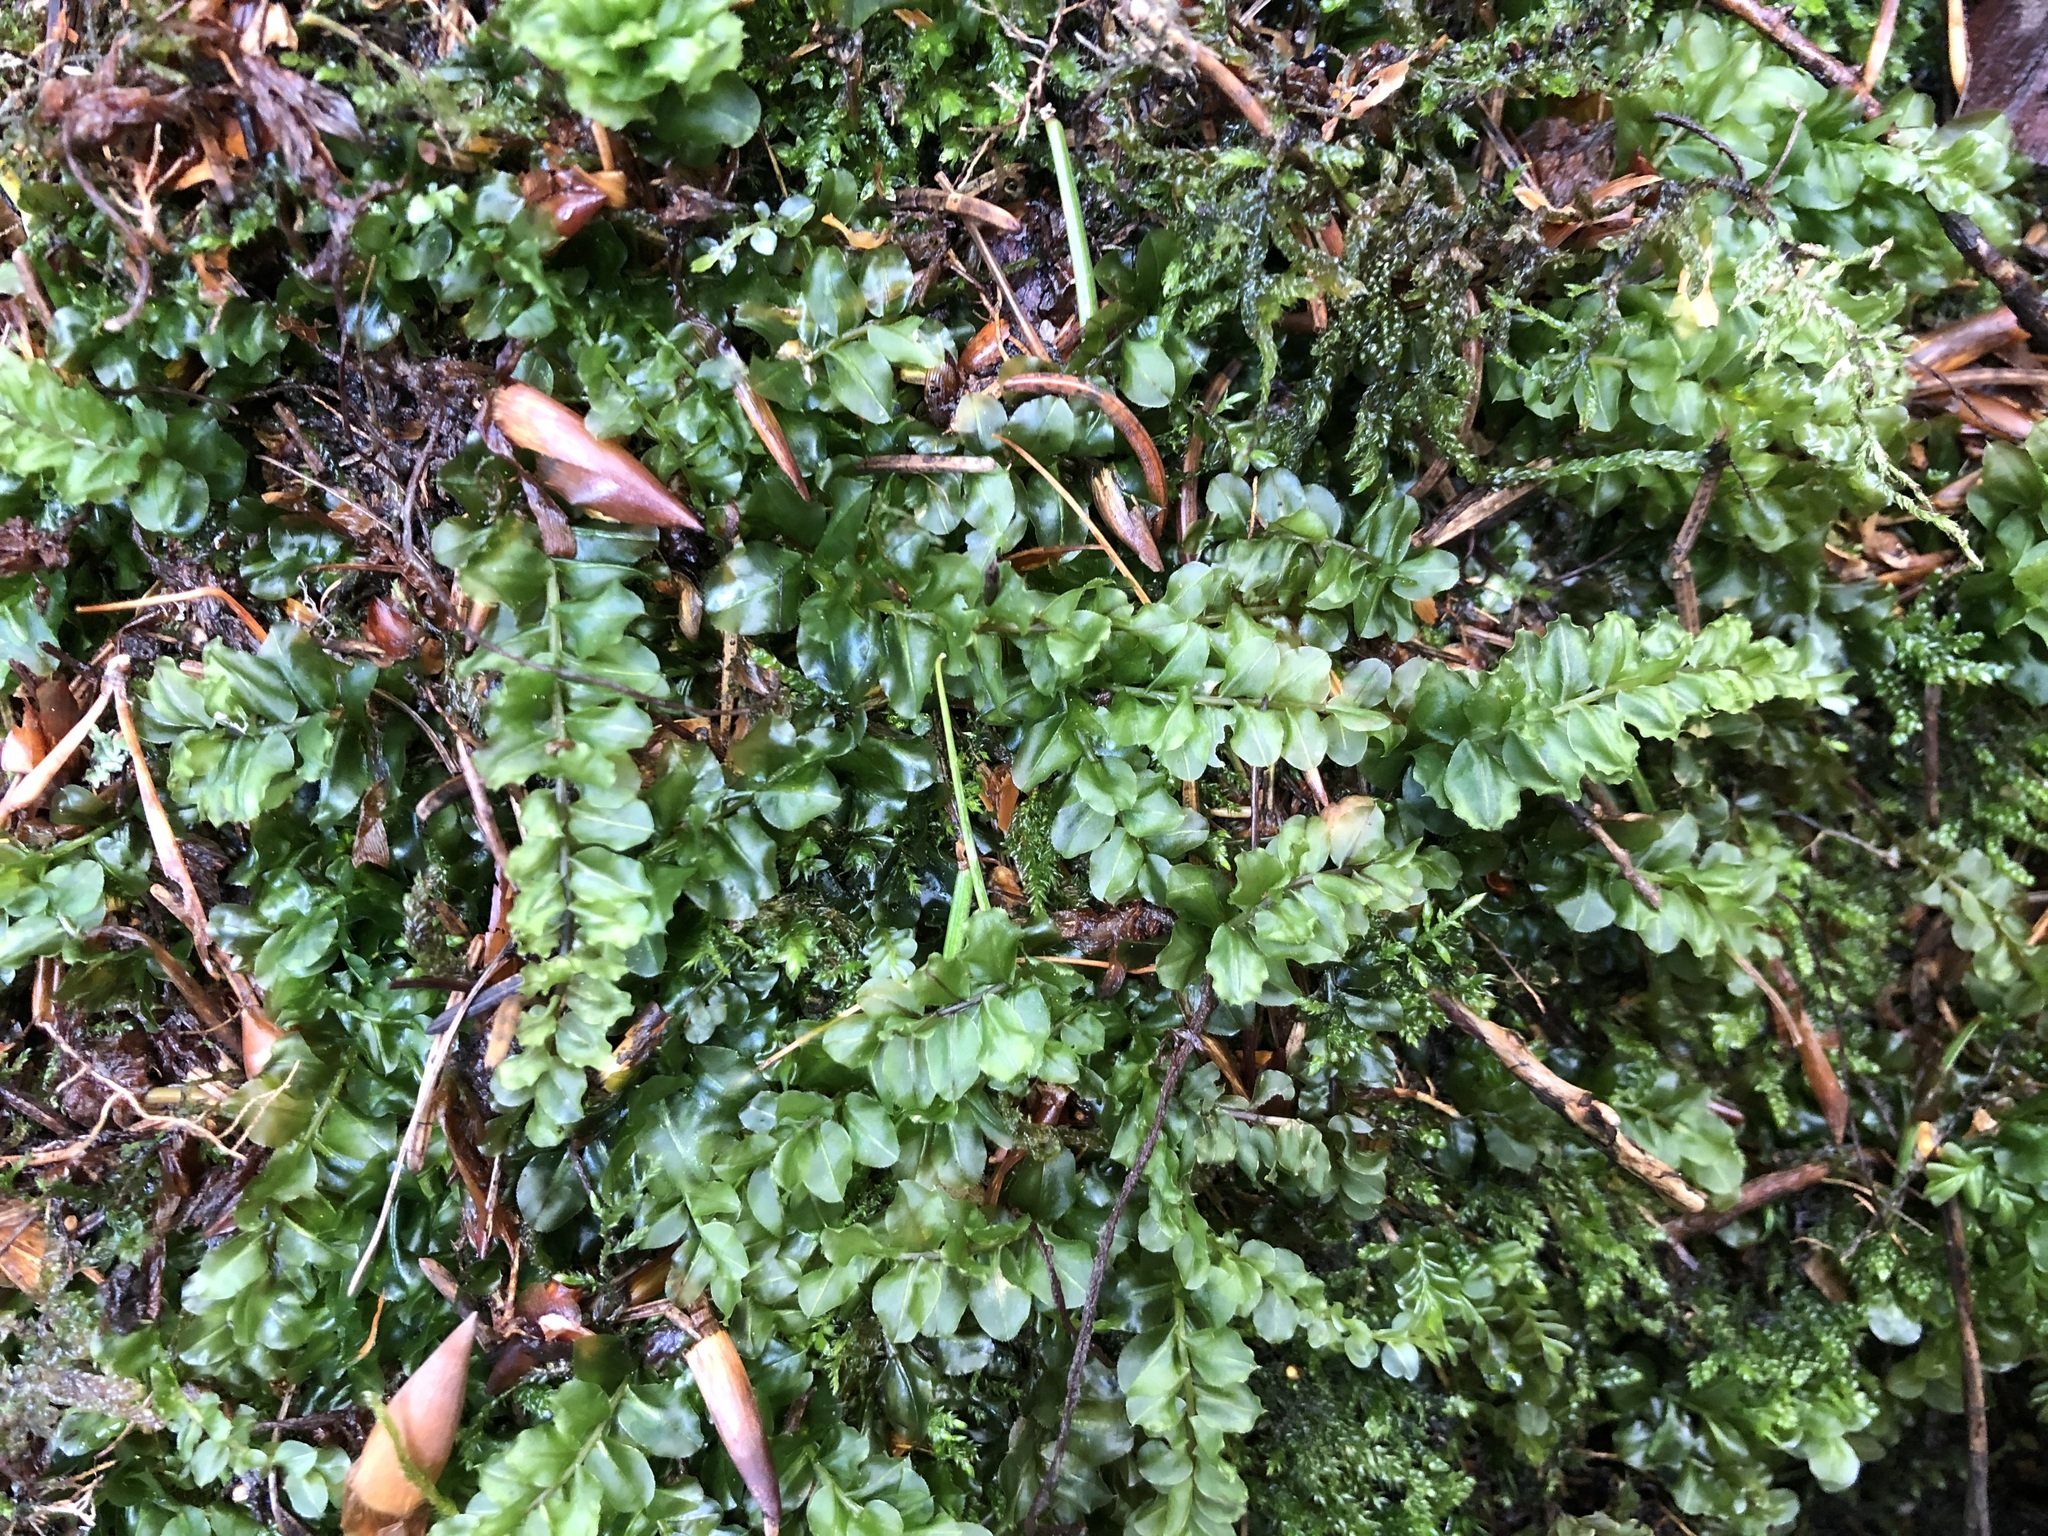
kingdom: Plantae
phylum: Bryophyta
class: Bryopsida
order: Bryales
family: Mniaceae
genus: Plagiomnium
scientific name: Plagiomnium affine
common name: Many-fruited thyme-moss
